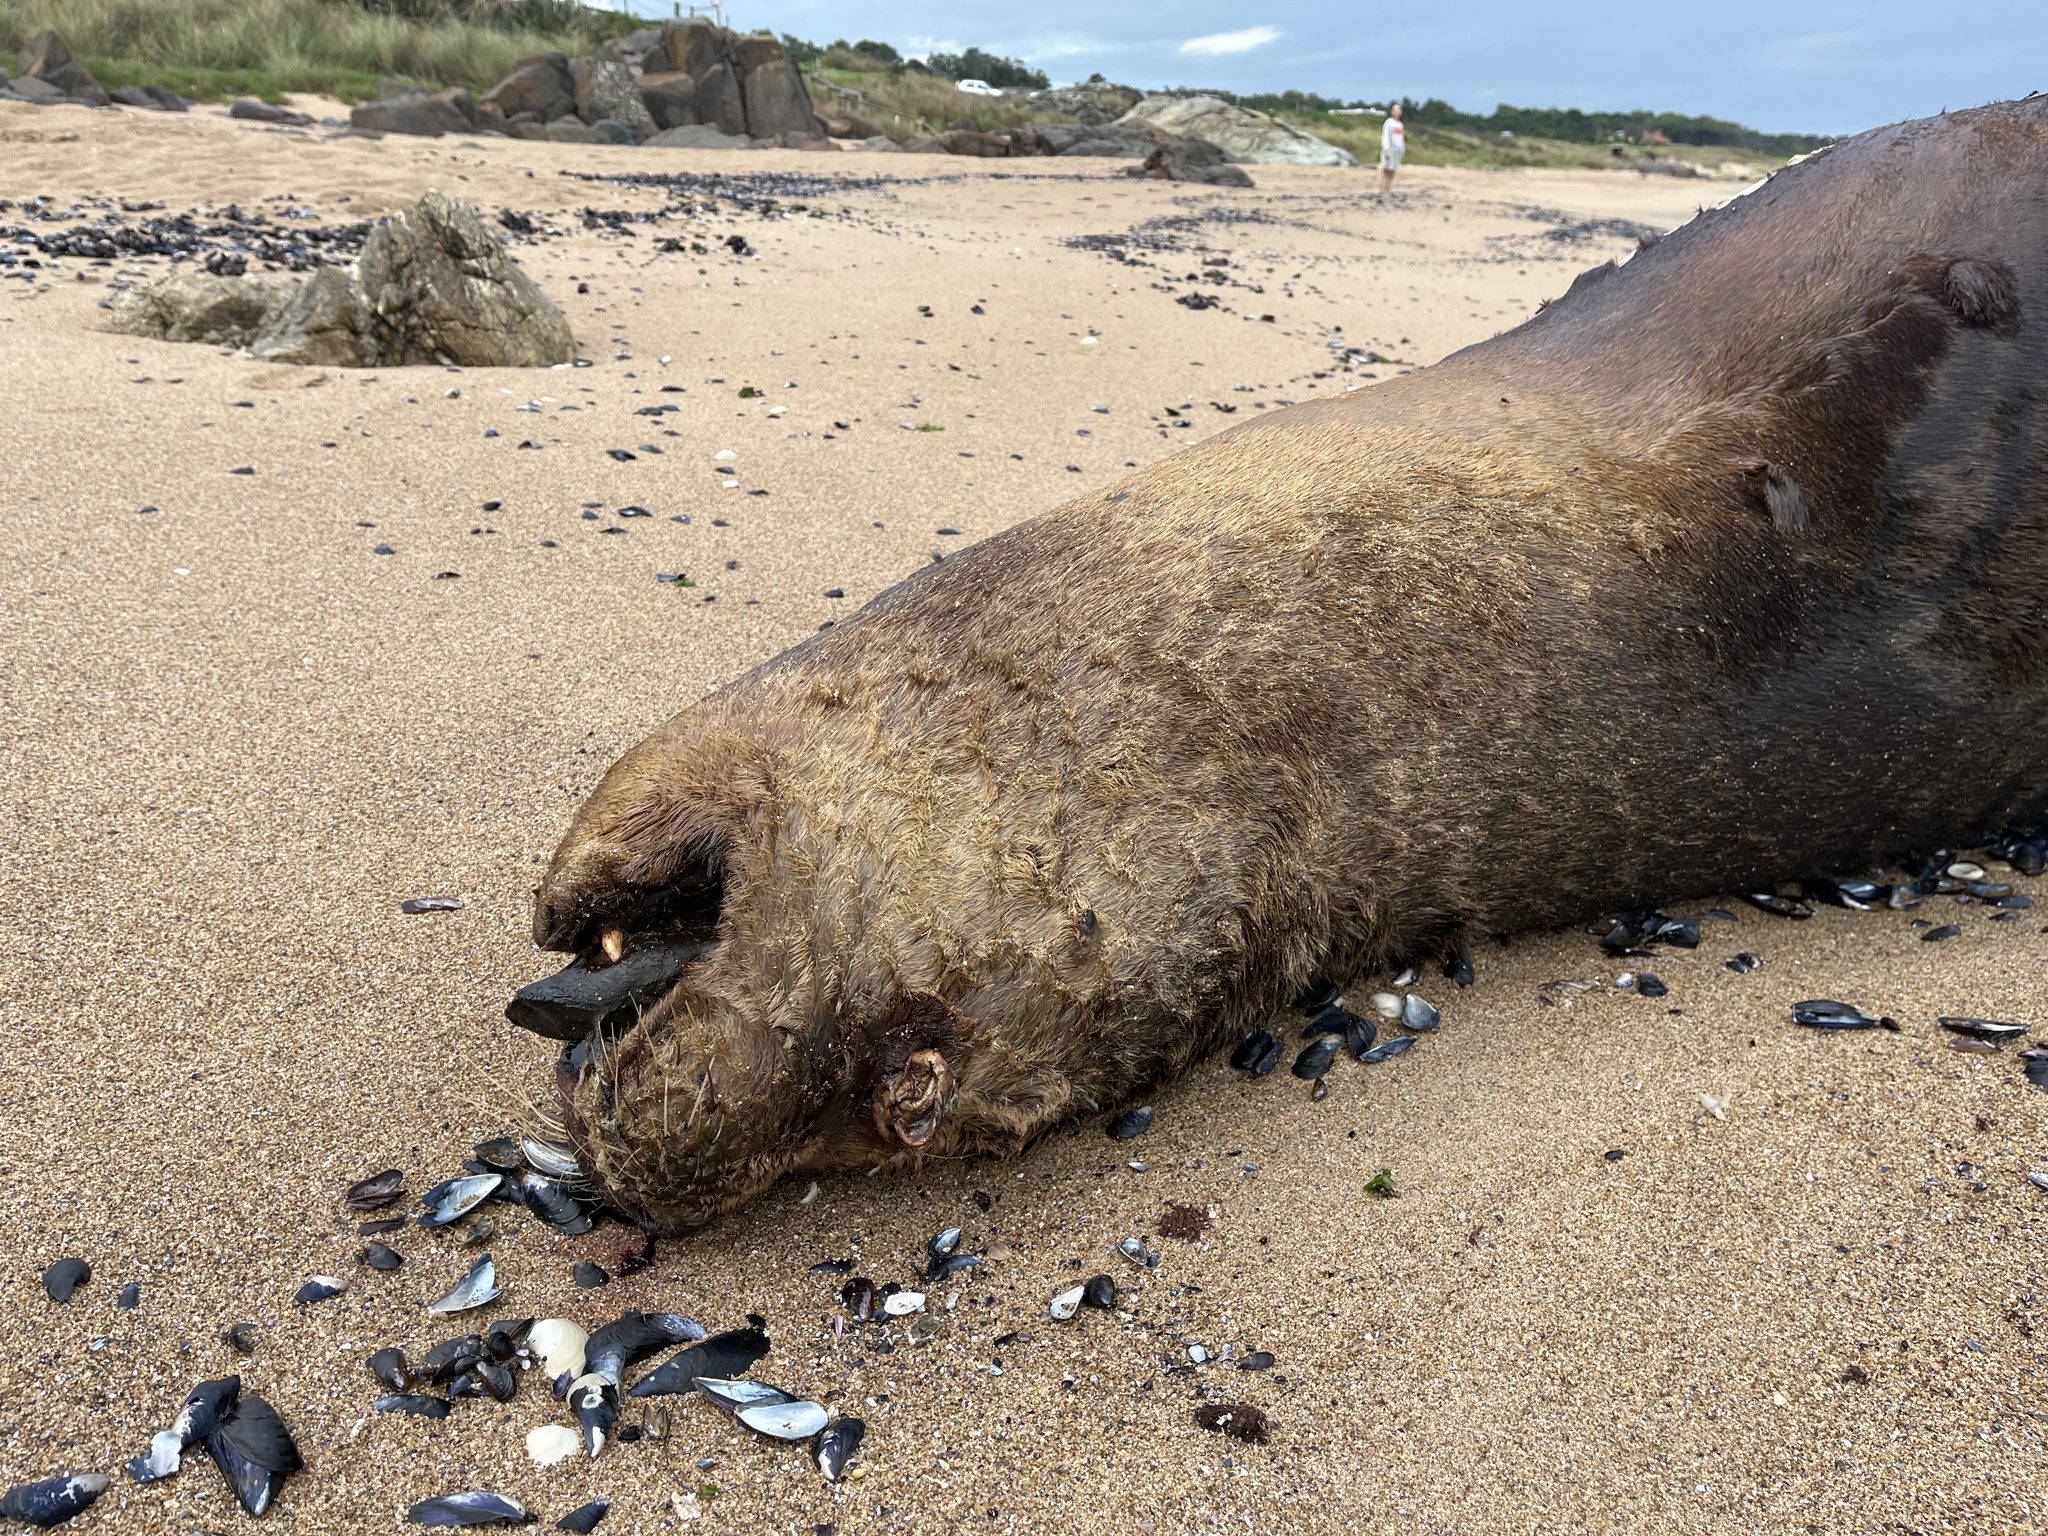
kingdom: Animalia
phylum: Chordata
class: Mammalia
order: Carnivora
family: Otariidae
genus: Otaria
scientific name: Otaria byronia
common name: South american sea lion
